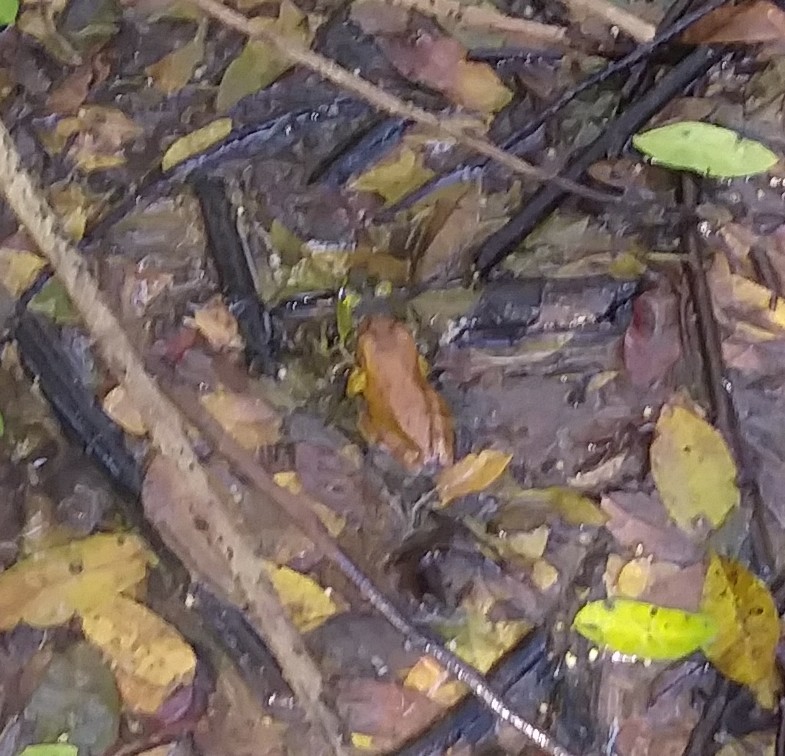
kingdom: Animalia
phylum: Chordata
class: Amphibia
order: Anura
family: Hylidae
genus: Osteopilus
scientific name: Osteopilus septentrionalis
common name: Cuban treefrog
